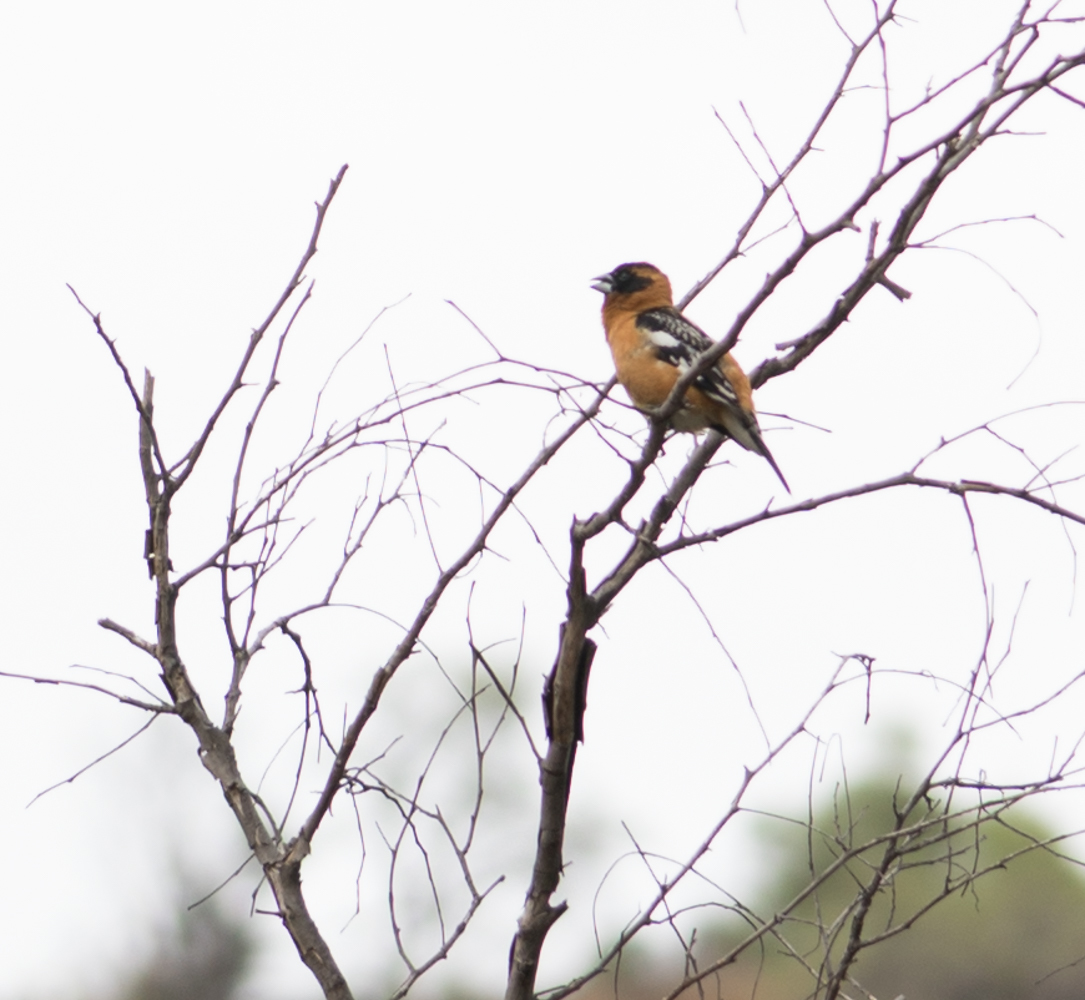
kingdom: Animalia
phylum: Chordata
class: Aves
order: Passeriformes
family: Cardinalidae
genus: Pheucticus
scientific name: Pheucticus melanocephalus
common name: Black-headed grosbeak
